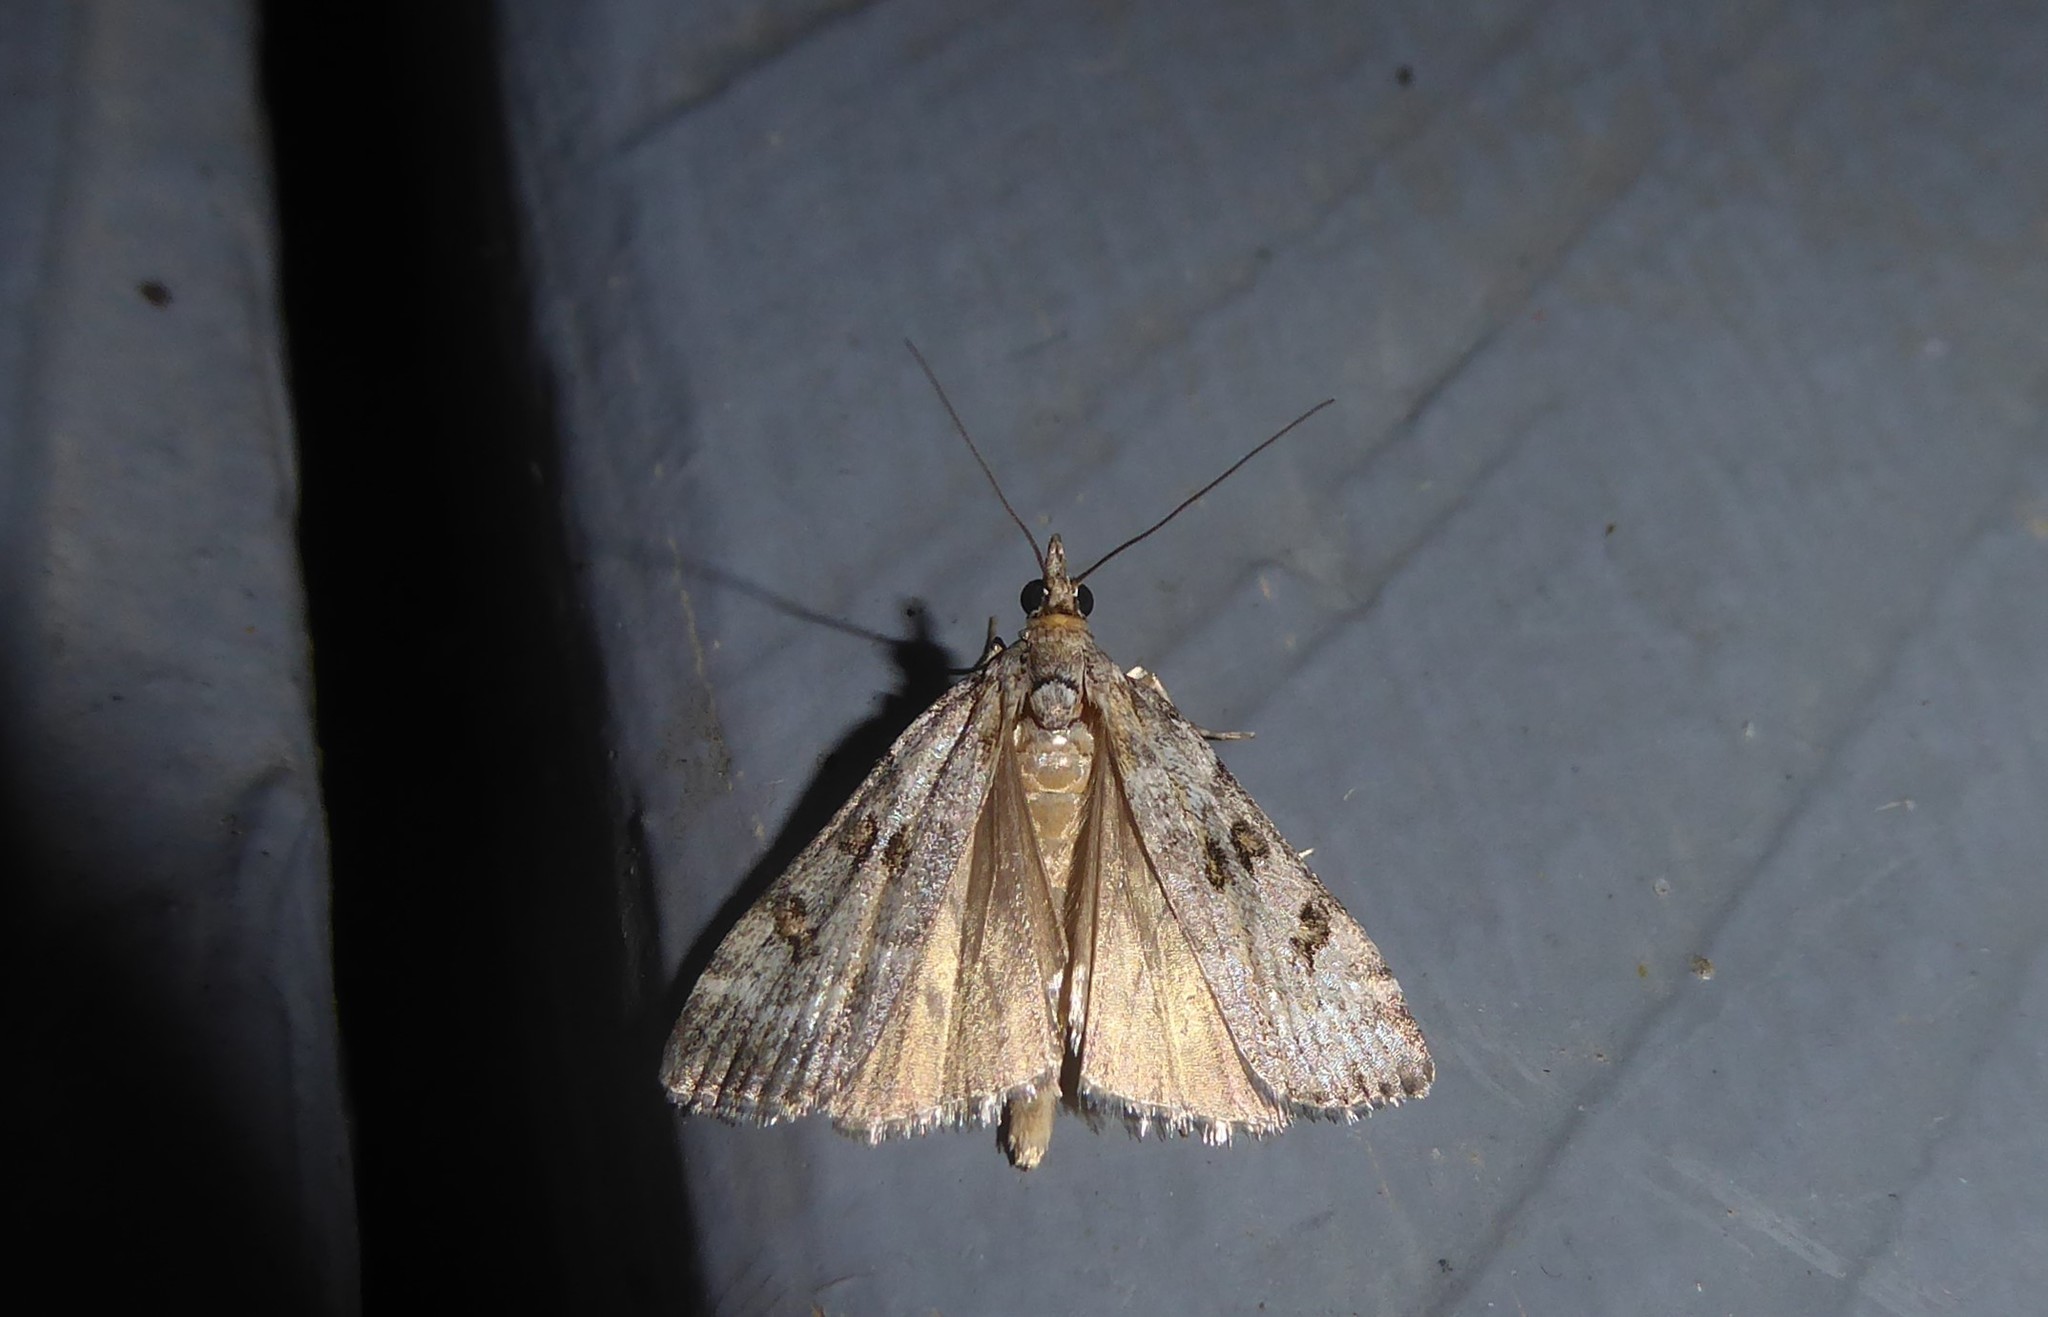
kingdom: Animalia
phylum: Arthropoda
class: Insecta
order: Lepidoptera
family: Crambidae
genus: Eudonia
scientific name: Eudonia diphtheralis
